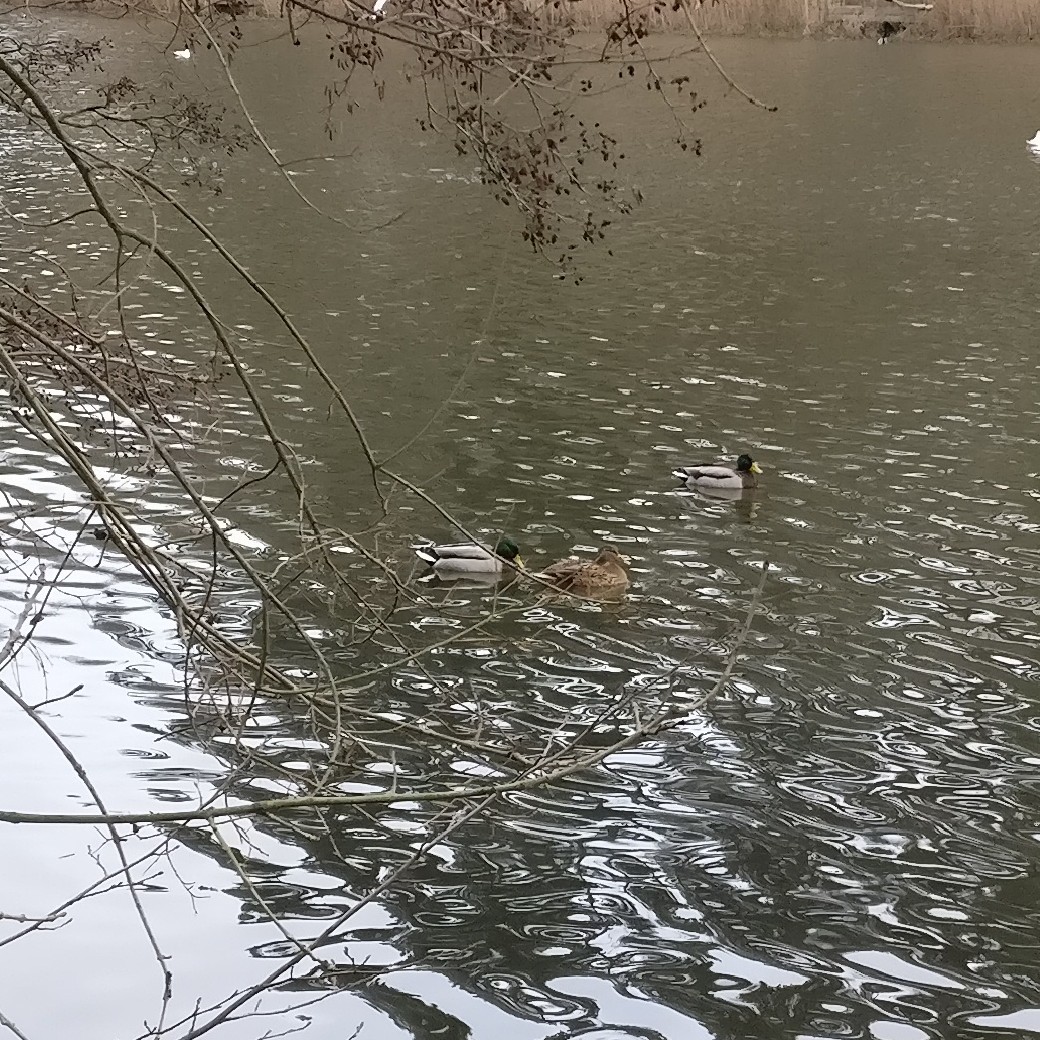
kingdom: Animalia
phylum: Chordata
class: Aves
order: Anseriformes
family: Anatidae
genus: Anas
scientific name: Anas platyrhynchos
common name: Mallard
